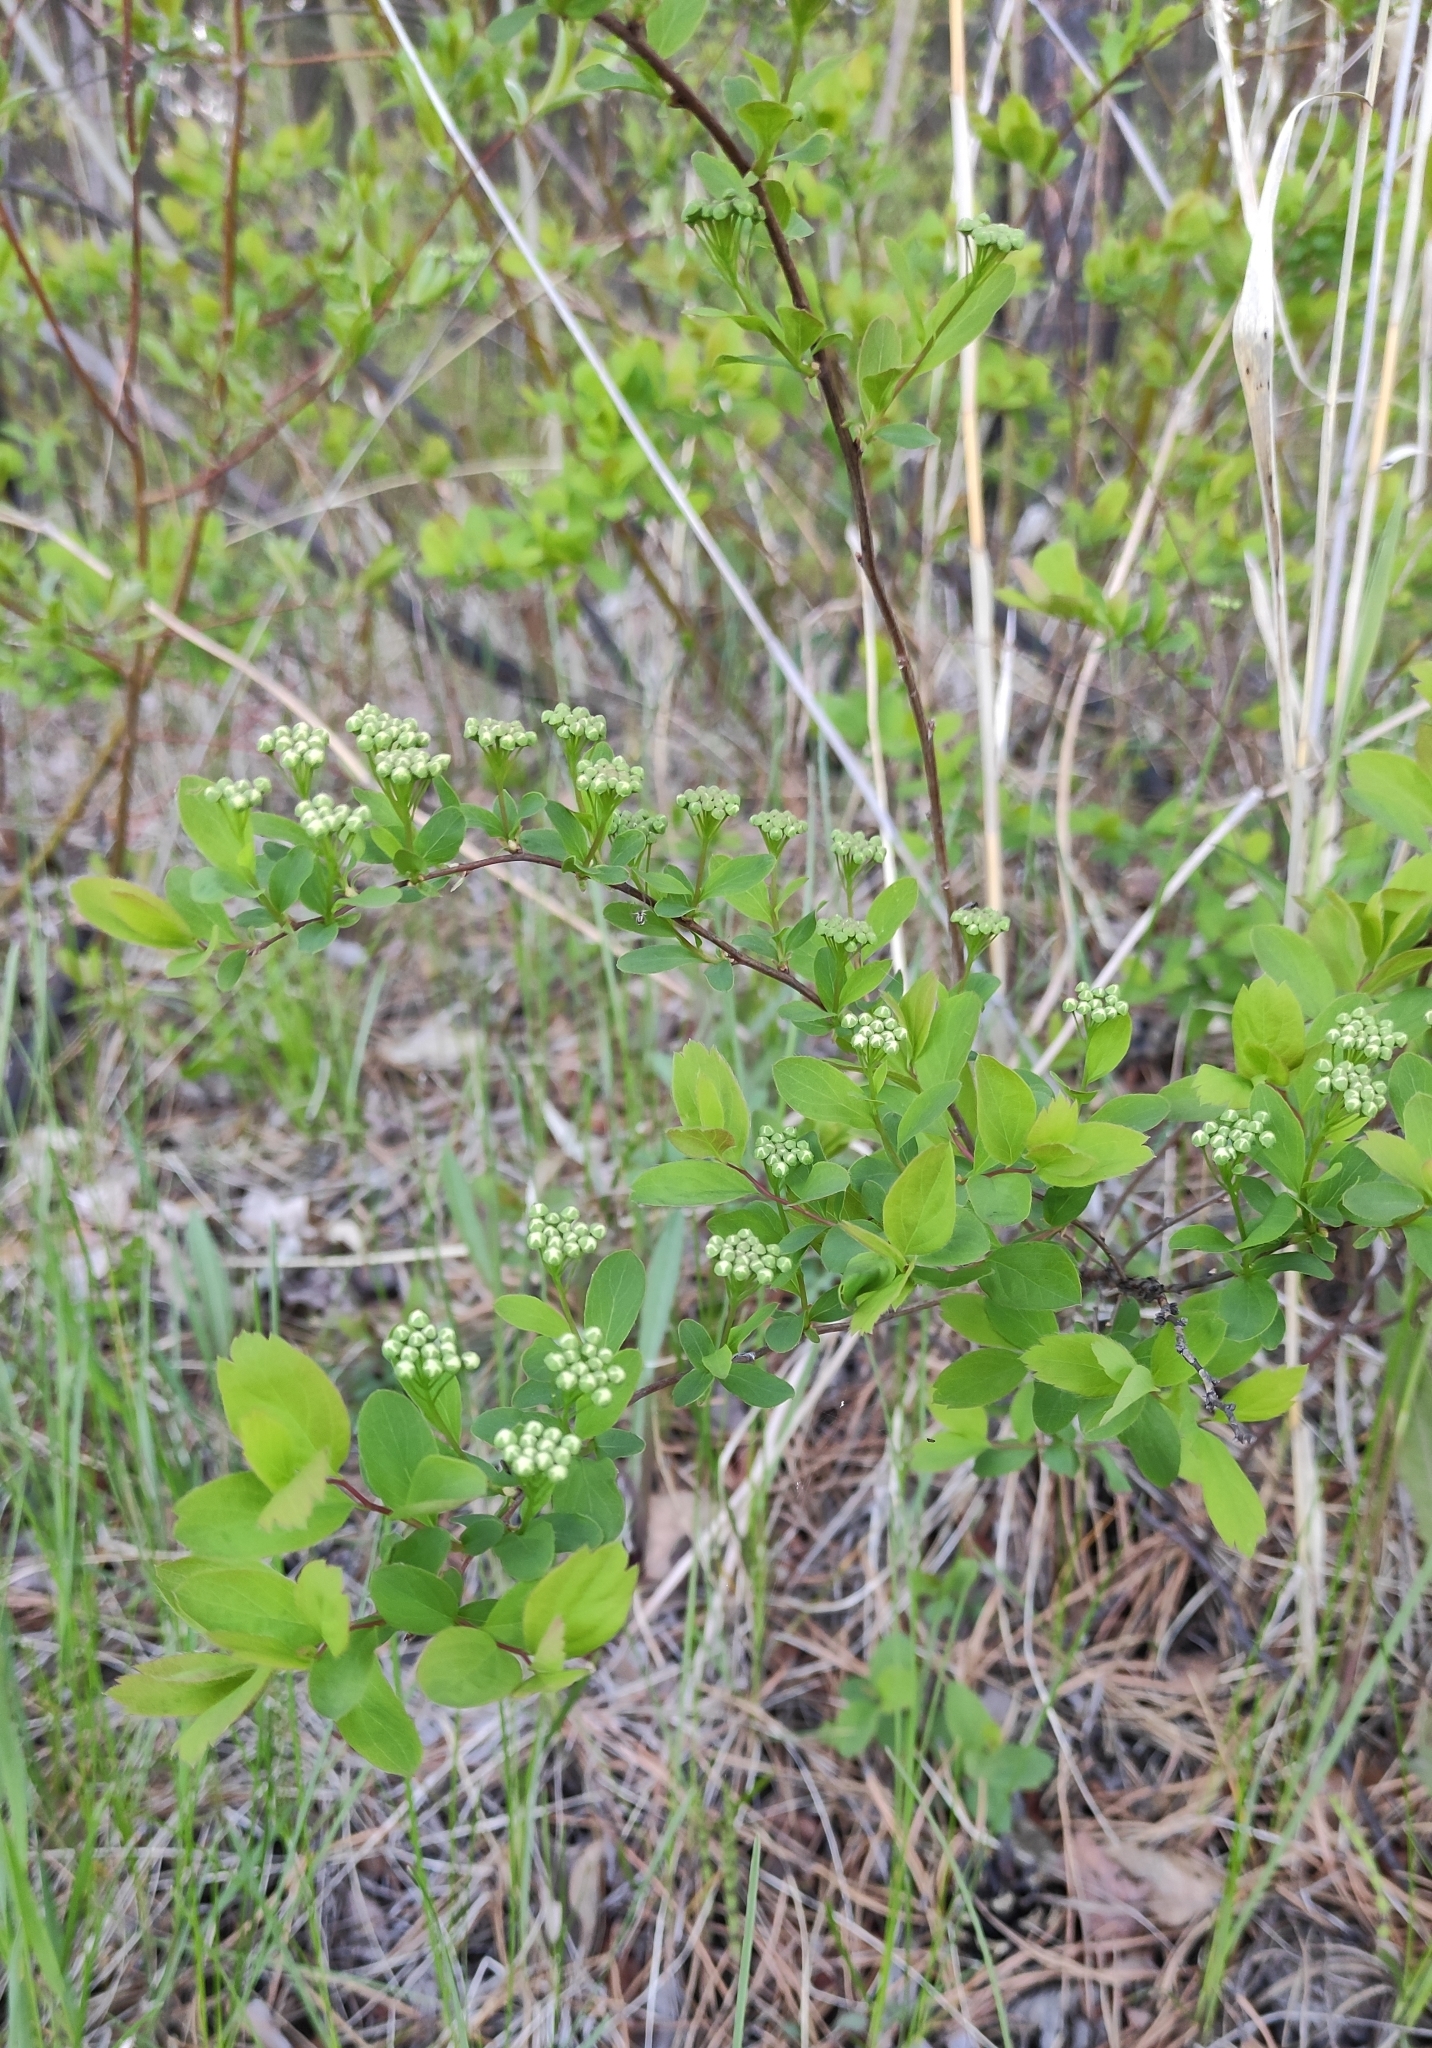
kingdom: Plantae
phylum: Tracheophyta
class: Magnoliopsida
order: Rosales
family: Rosaceae
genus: Spiraea
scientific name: Spiraea media
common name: Russian spiraea
